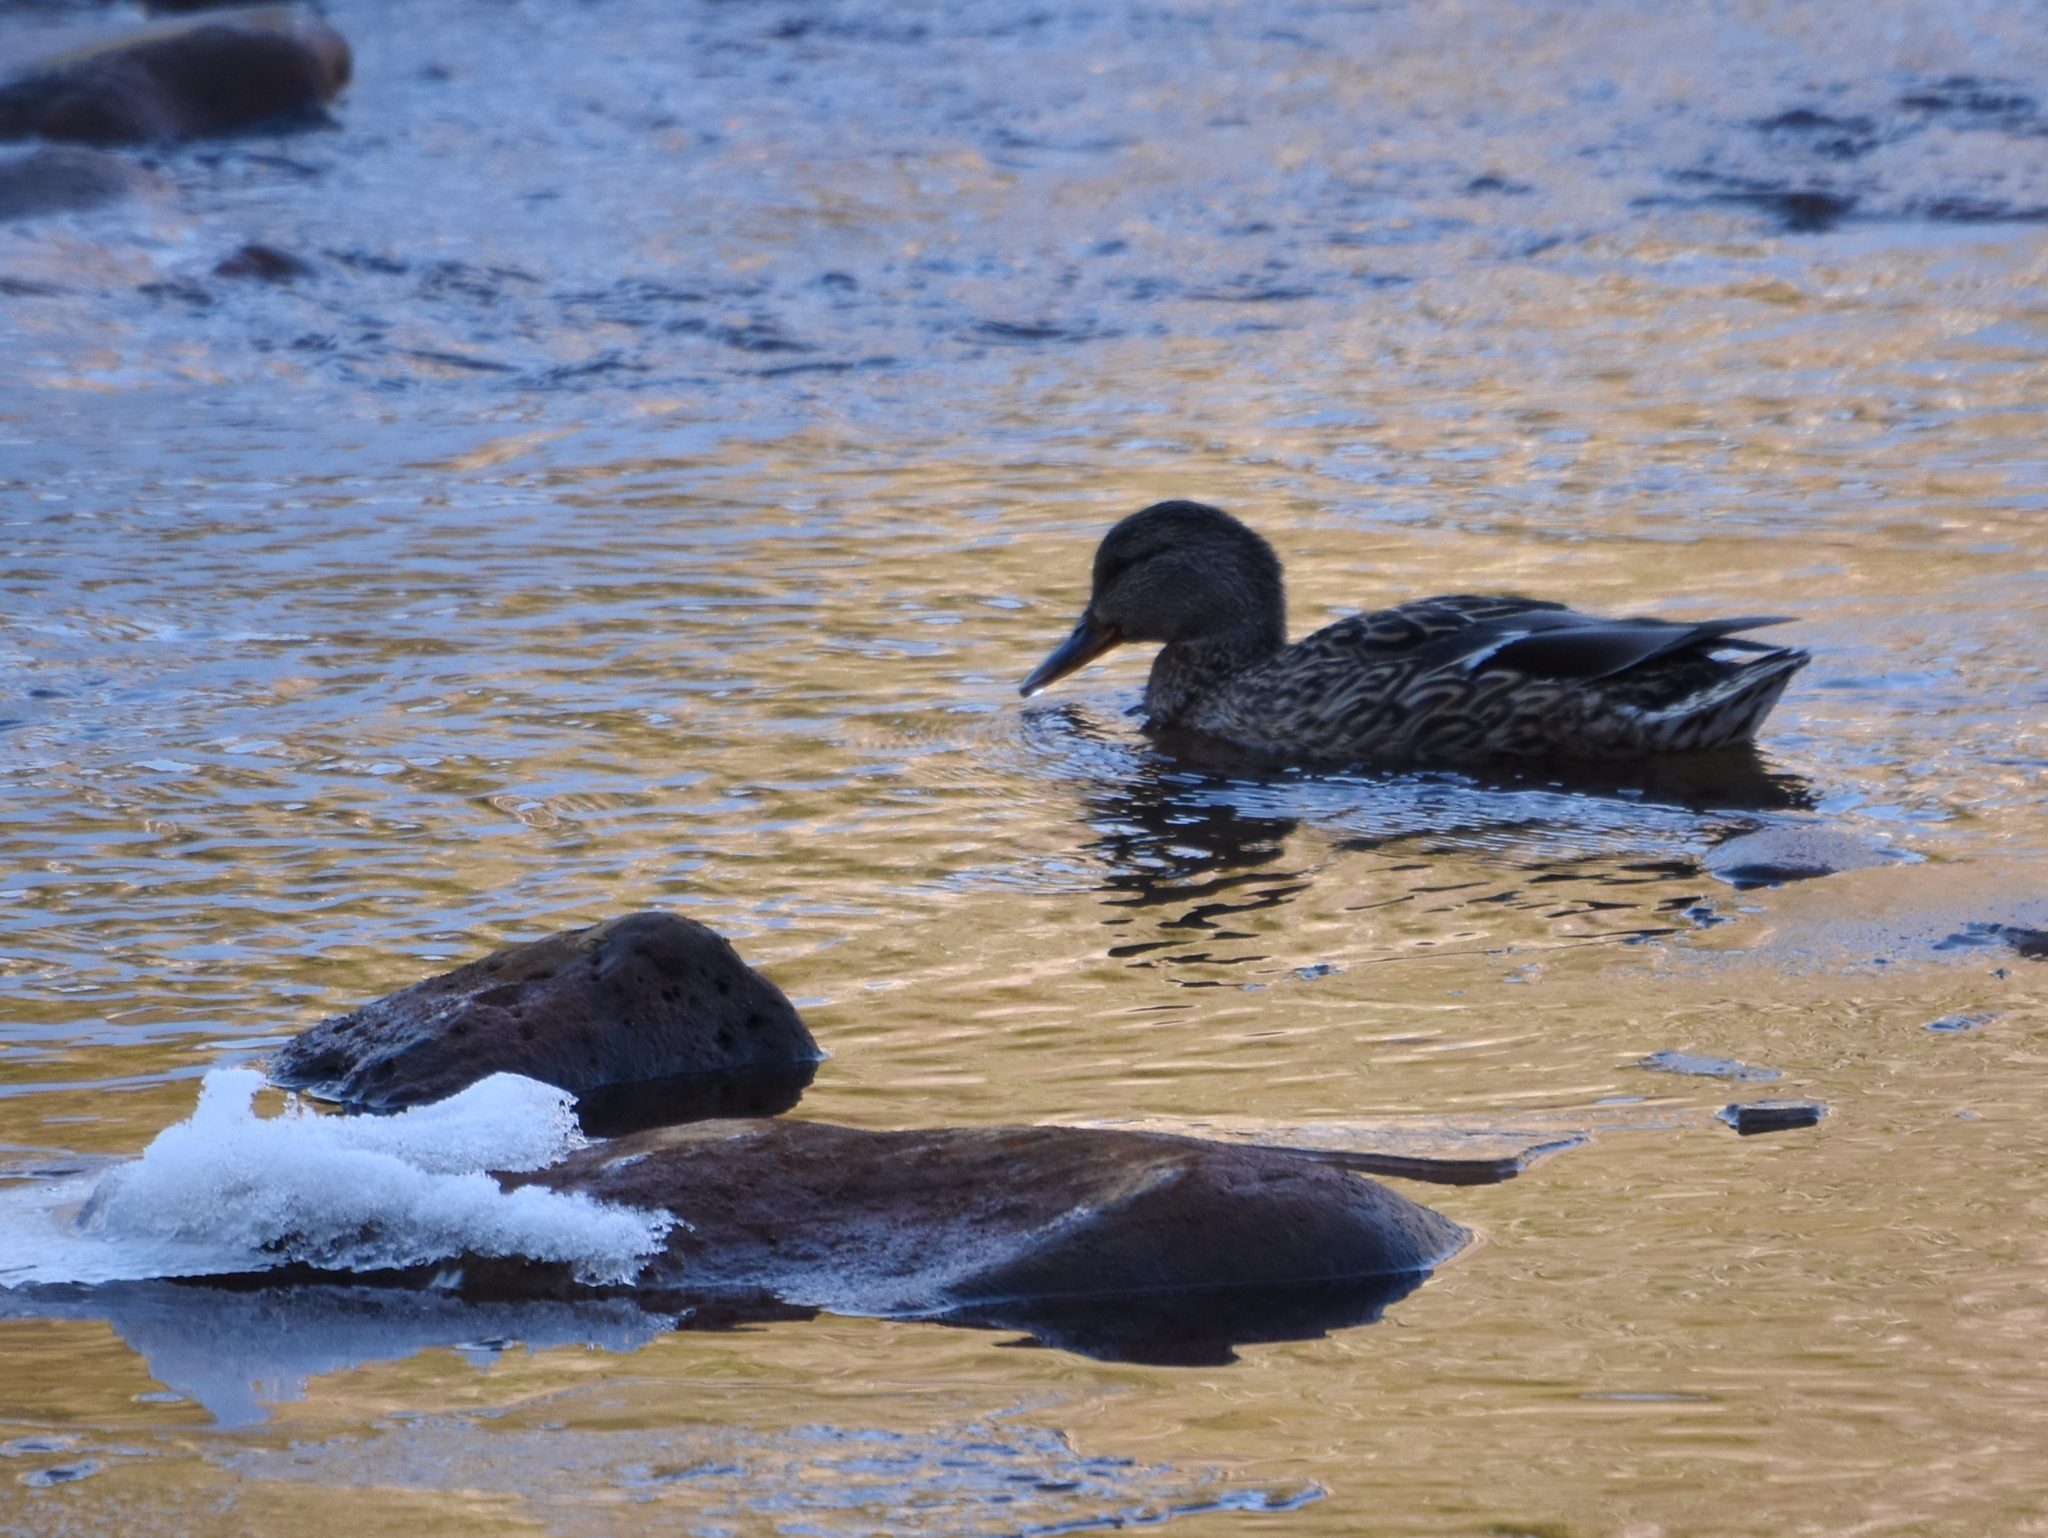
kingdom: Animalia
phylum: Chordata
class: Aves
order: Anseriformes
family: Anatidae
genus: Anas
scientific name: Anas platyrhynchos
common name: Mallard
